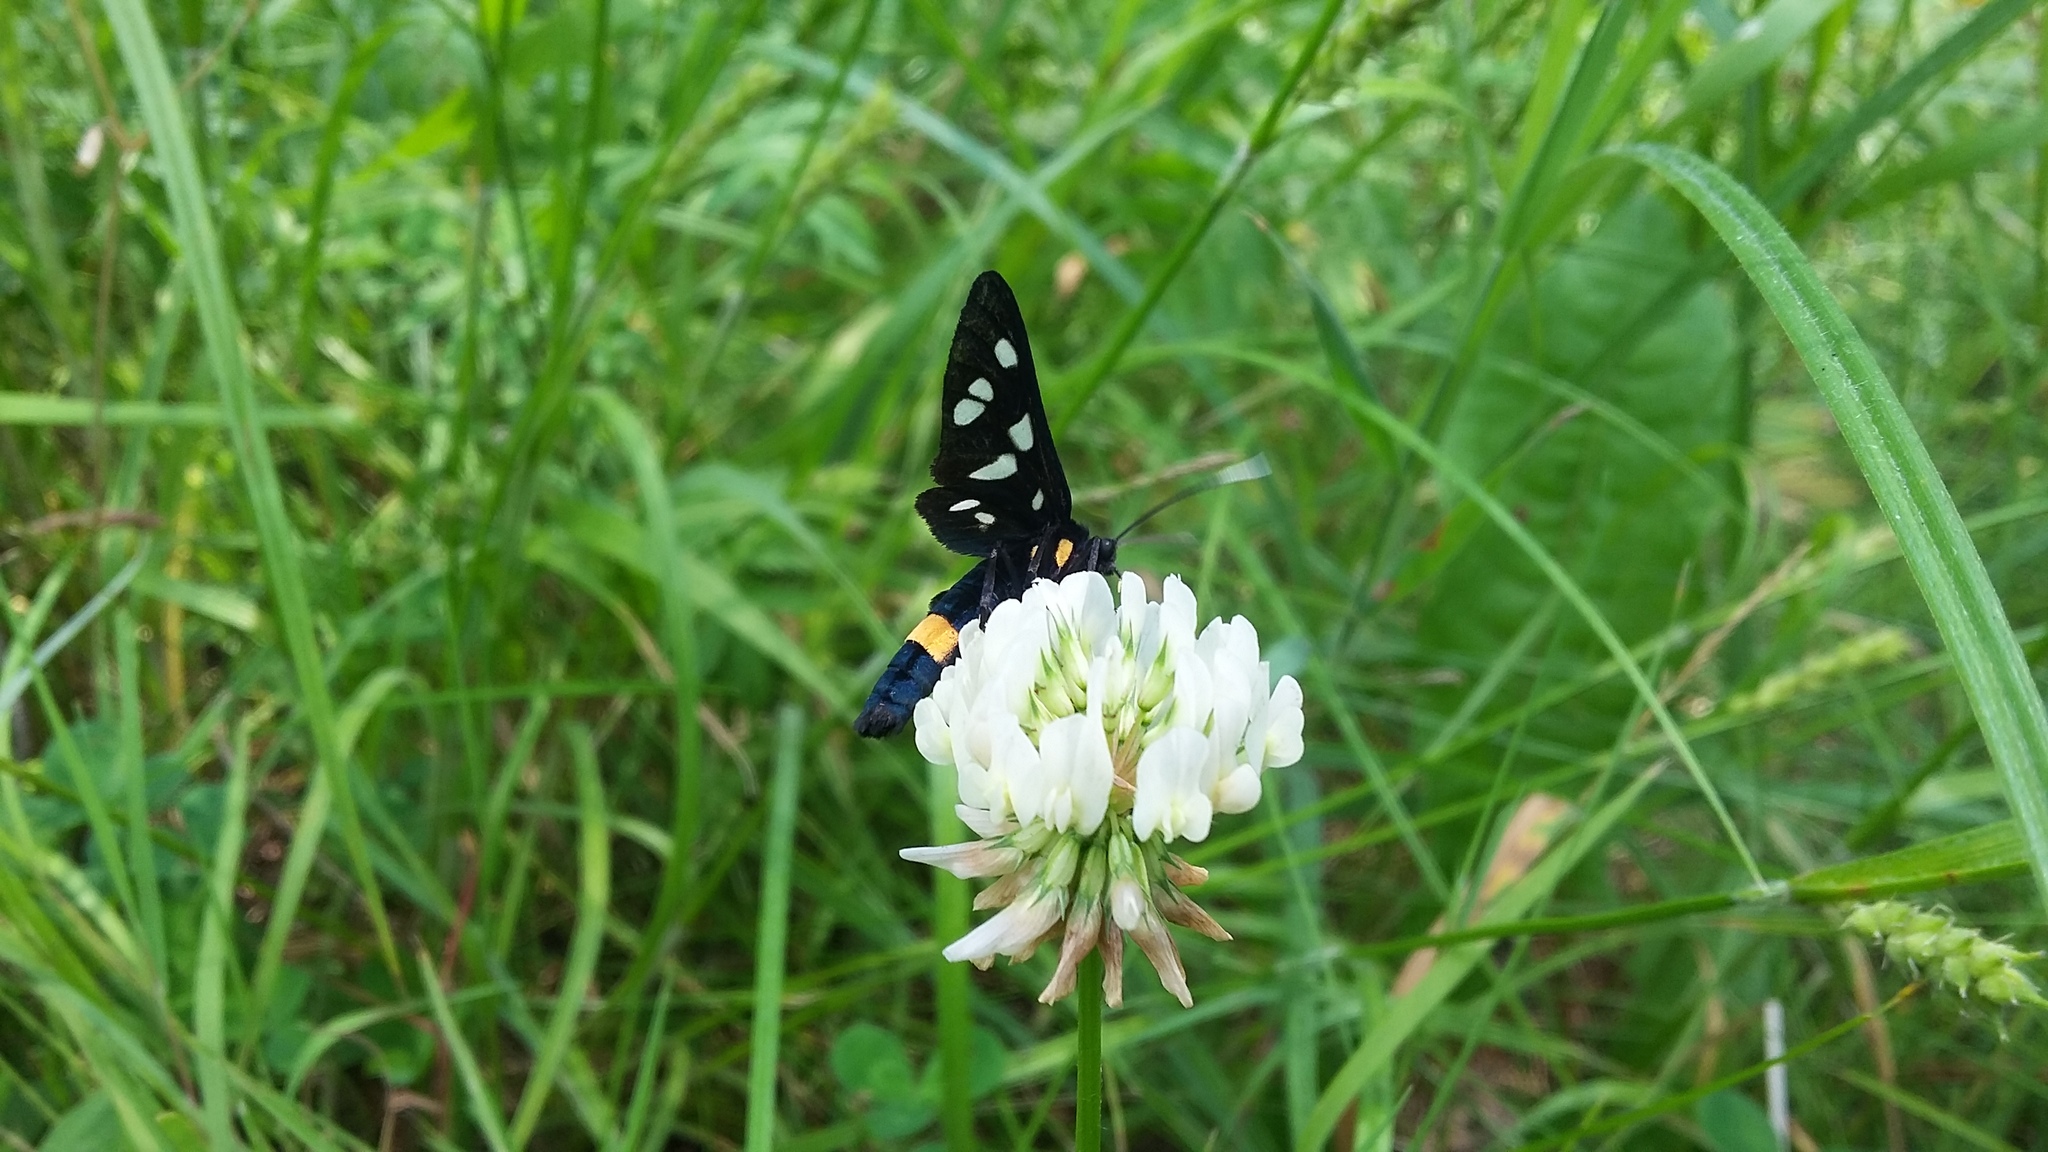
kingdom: Animalia
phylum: Arthropoda
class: Insecta
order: Lepidoptera
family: Erebidae
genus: Amata
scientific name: Amata phegea
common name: Nine-spotted
